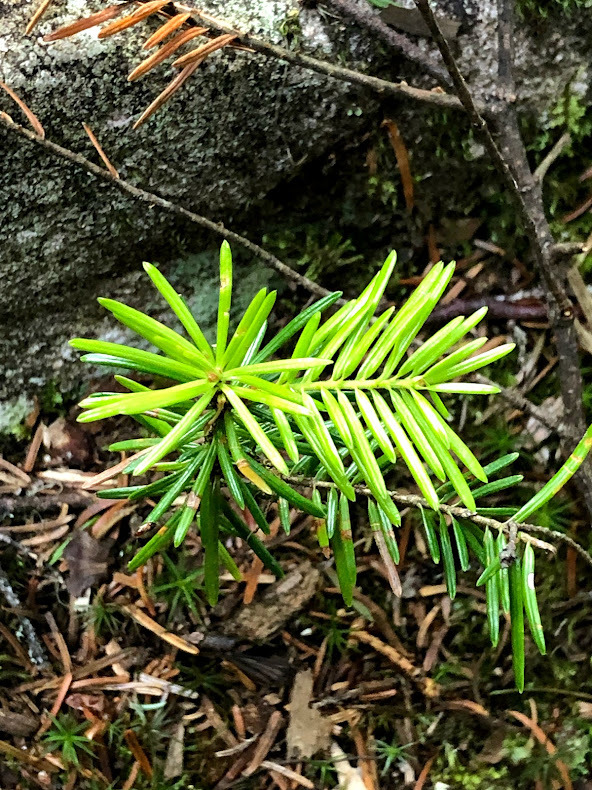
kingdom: Plantae
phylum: Tracheophyta
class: Pinopsida
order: Pinales
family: Pinaceae
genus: Abies
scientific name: Abies balsamea
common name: Balsam fir
